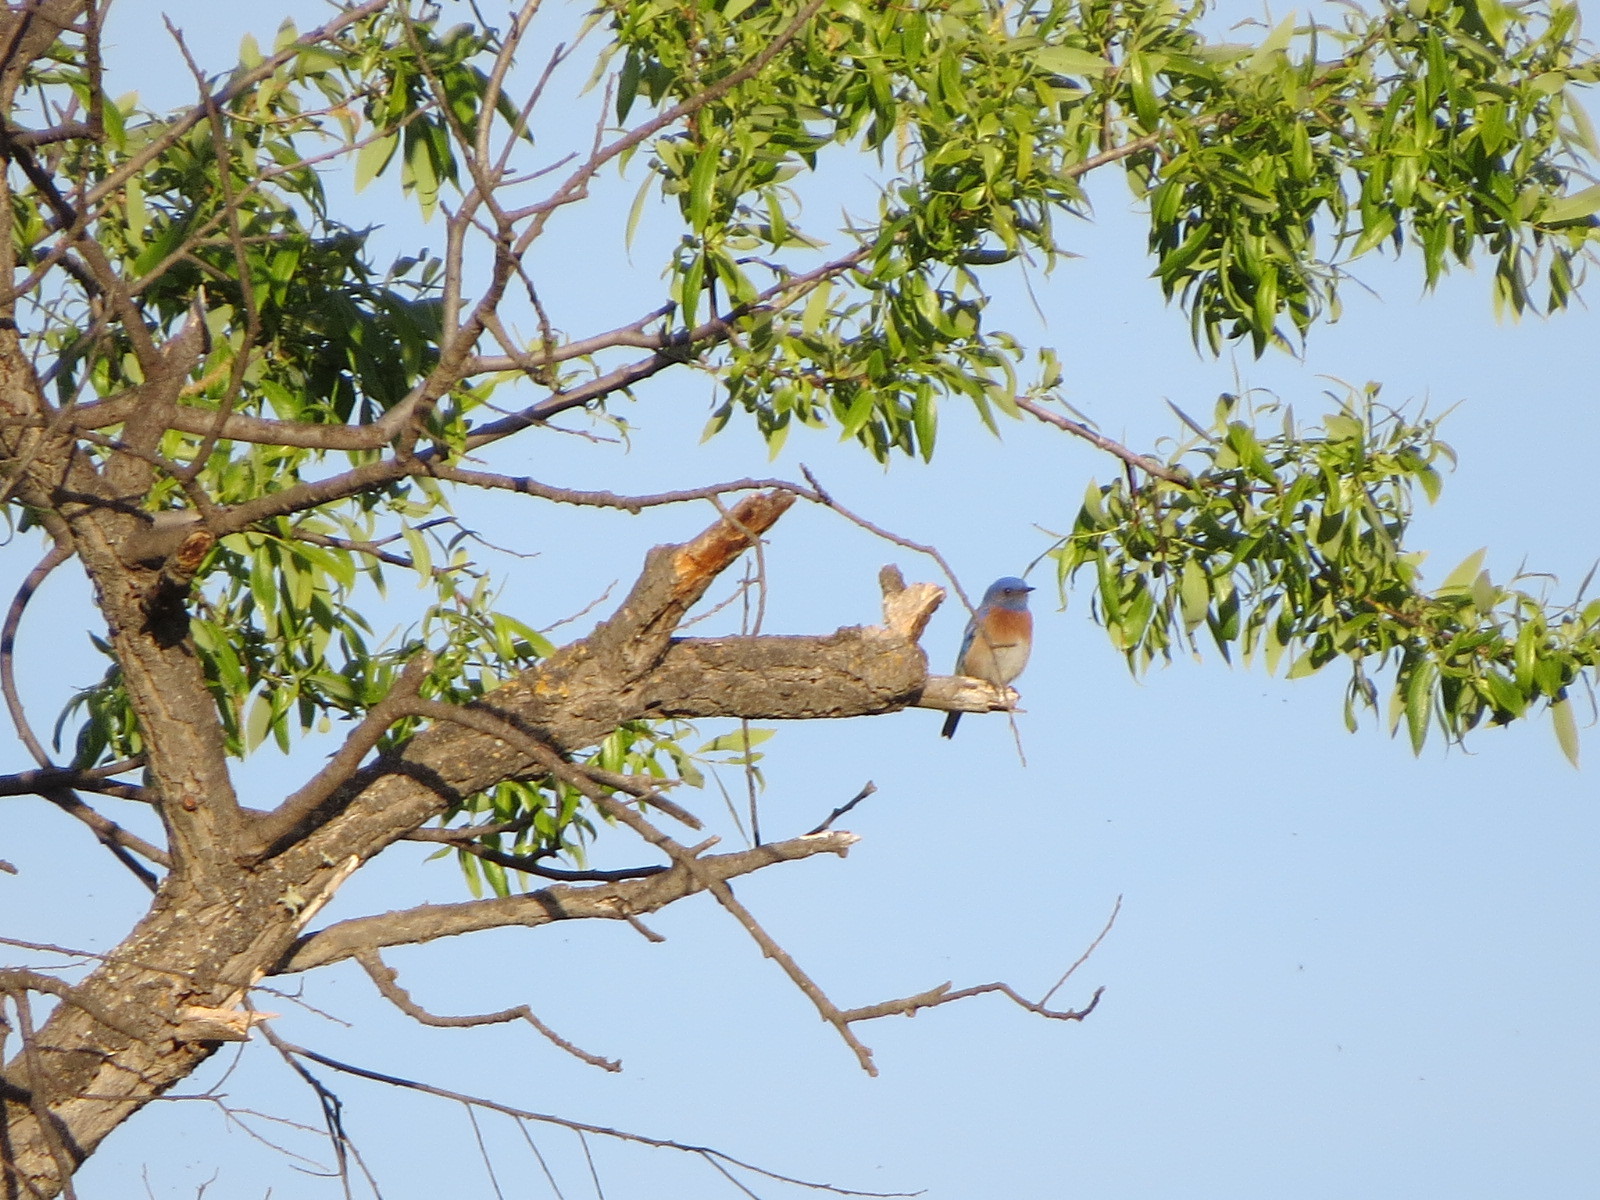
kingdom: Animalia
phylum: Chordata
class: Aves
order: Passeriformes
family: Turdidae
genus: Sialia
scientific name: Sialia mexicana
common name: Western bluebird
